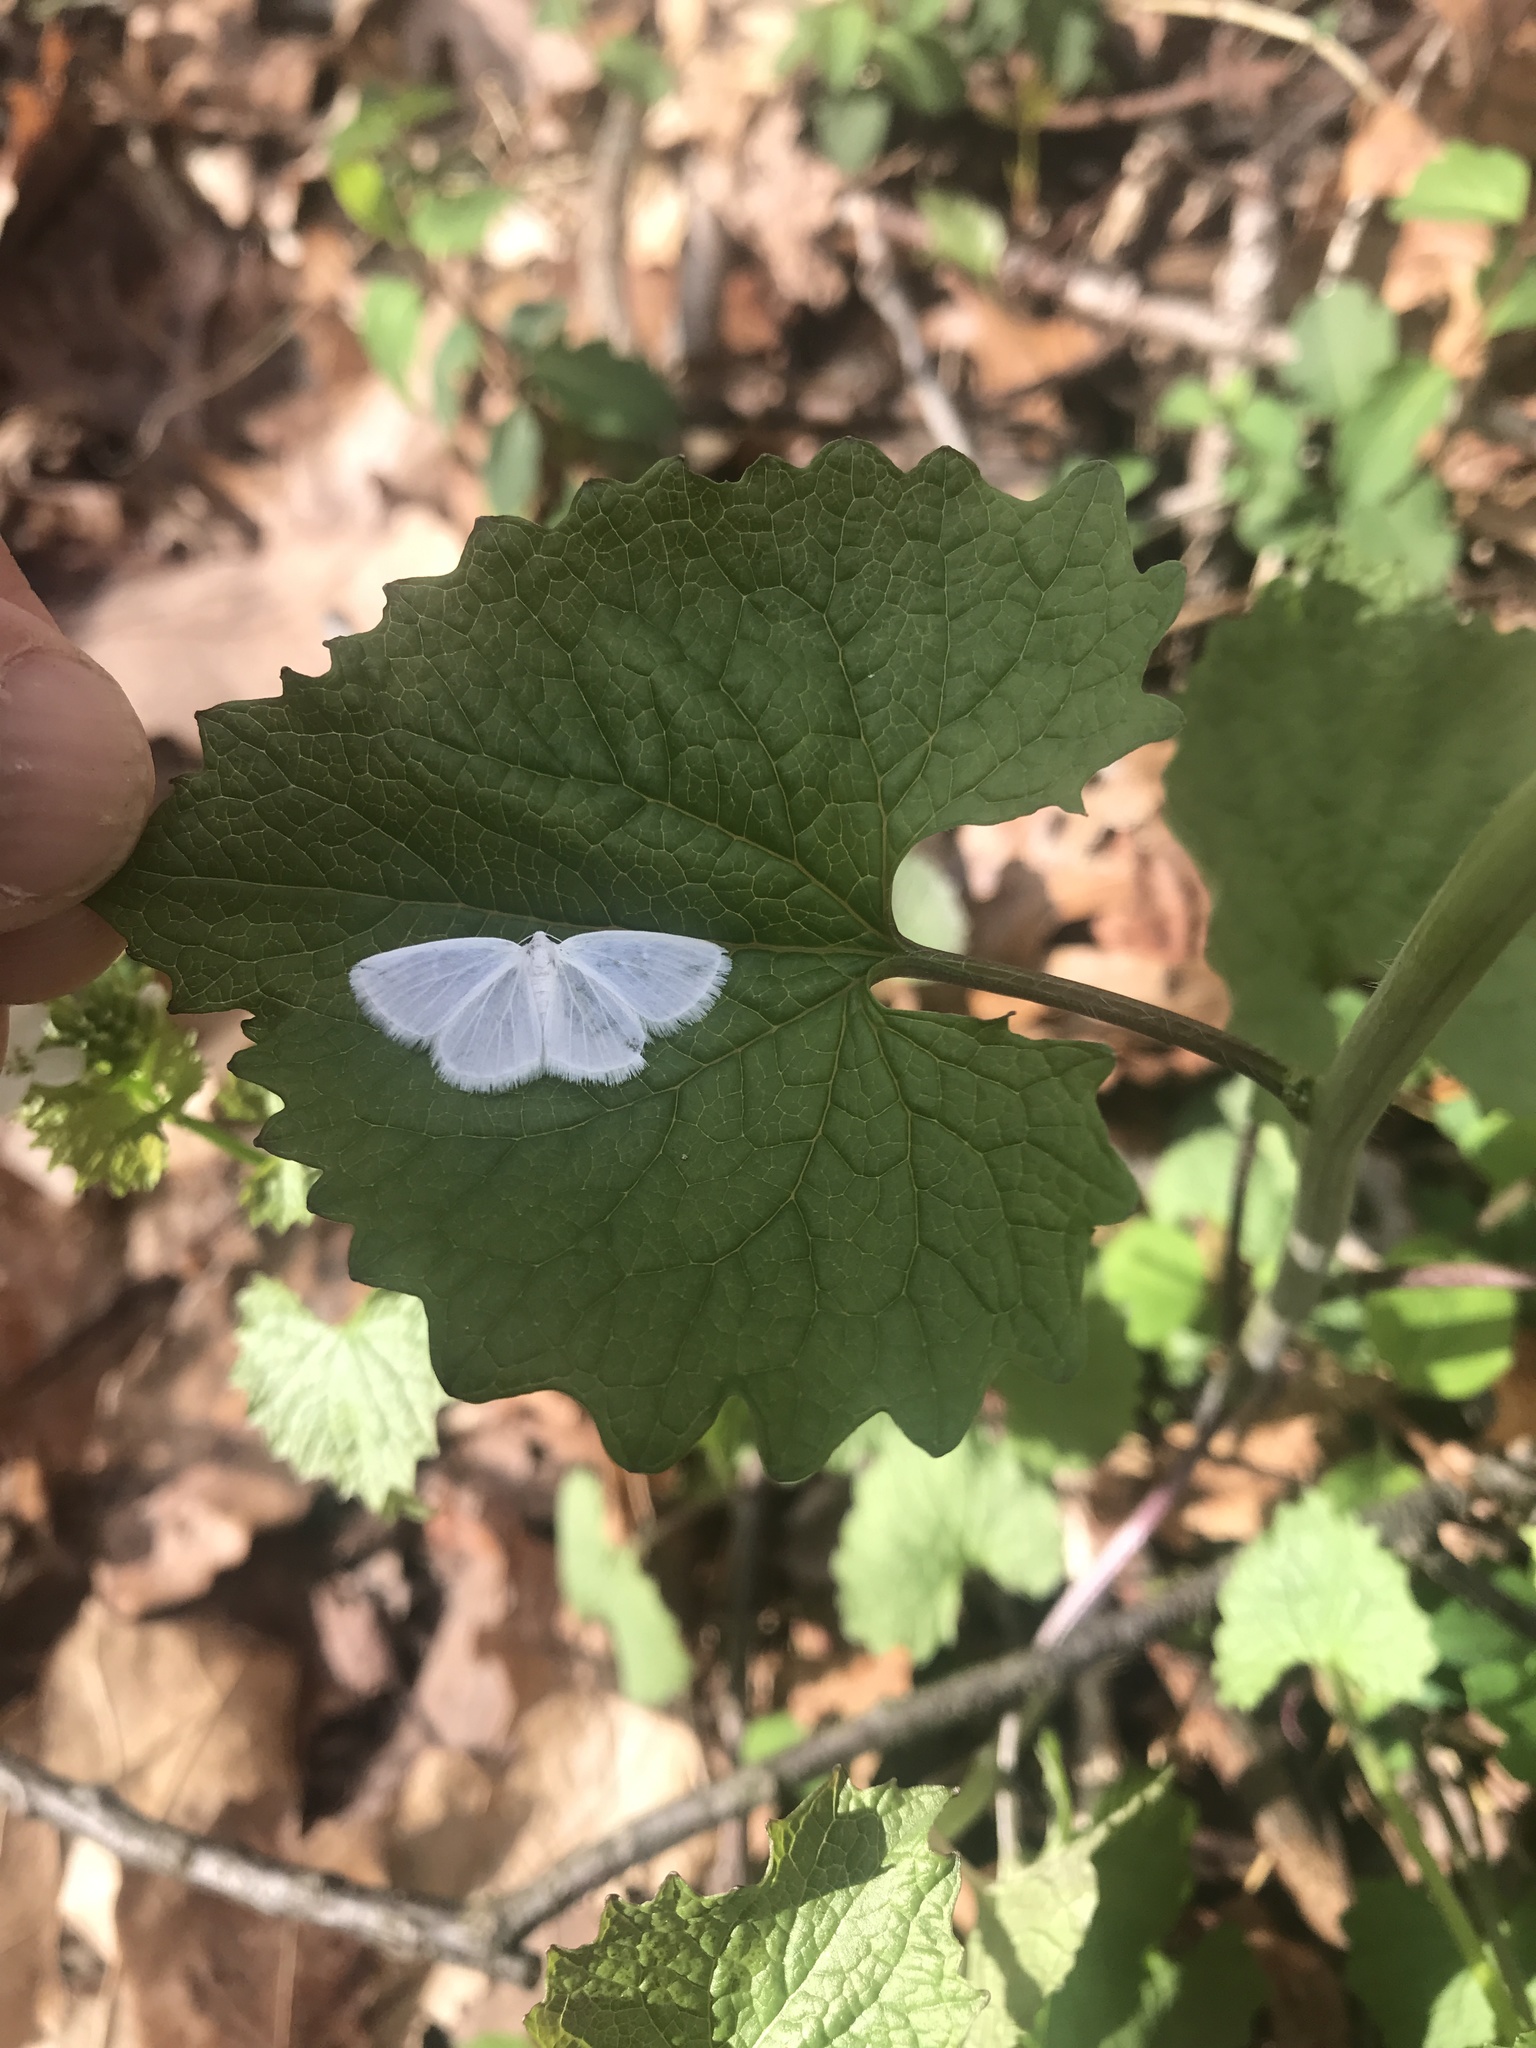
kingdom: Animalia
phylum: Arthropoda
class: Insecta
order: Lepidoptera
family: Geometridae
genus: Lomographa
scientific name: Lomographa vestaliata
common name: White spring moth
